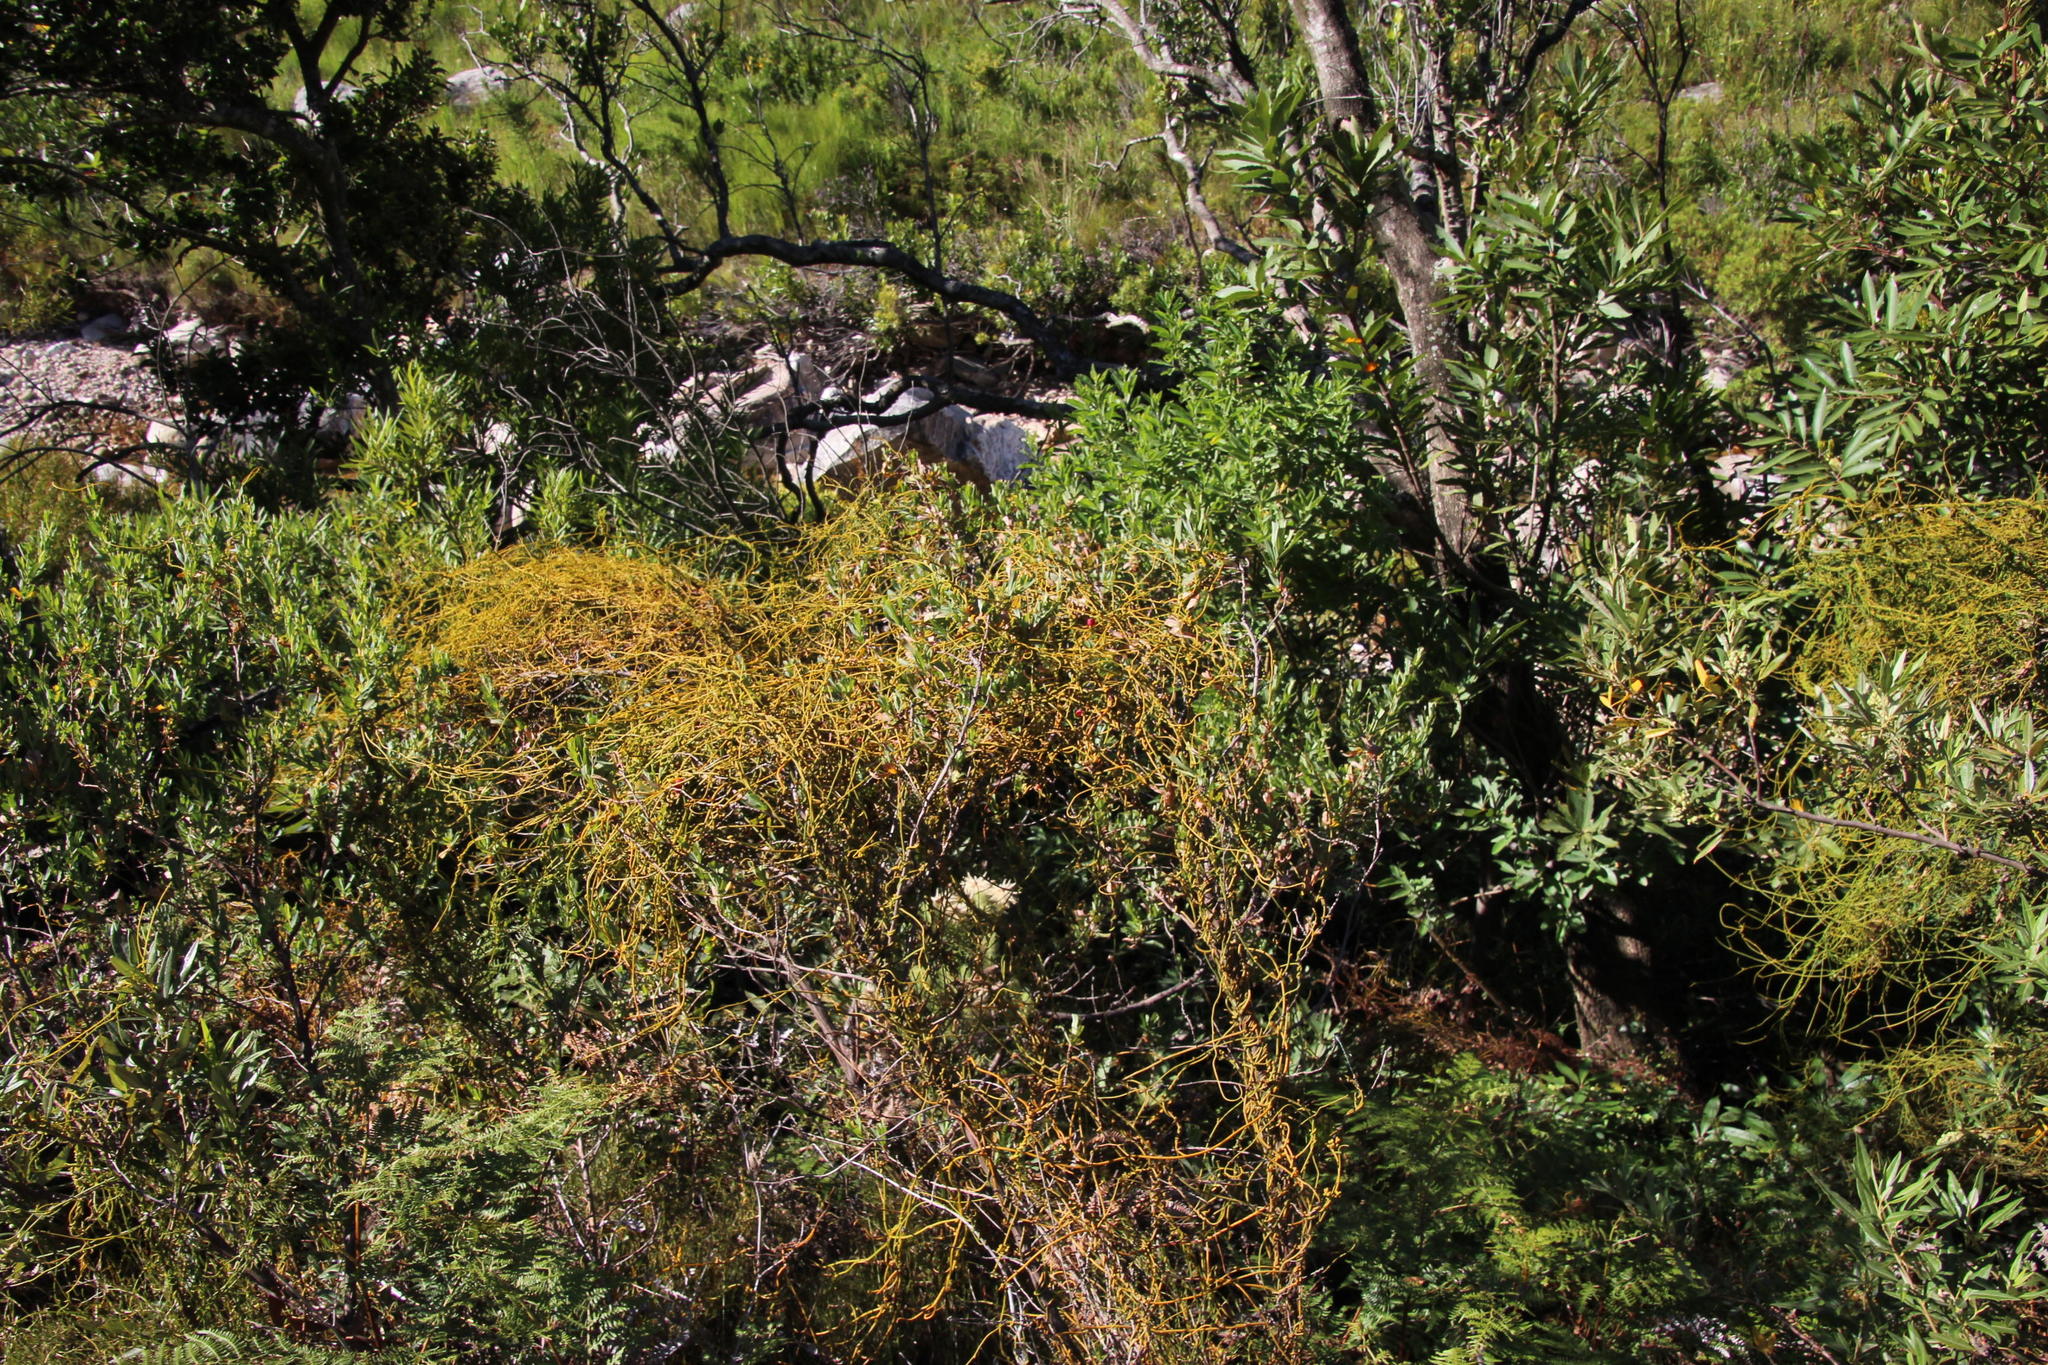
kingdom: Plantae
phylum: Tracheophyta
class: Magnoliopsida
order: Laurales
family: Lauraceae
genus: Cassytha
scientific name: Cassytha ciliolata
